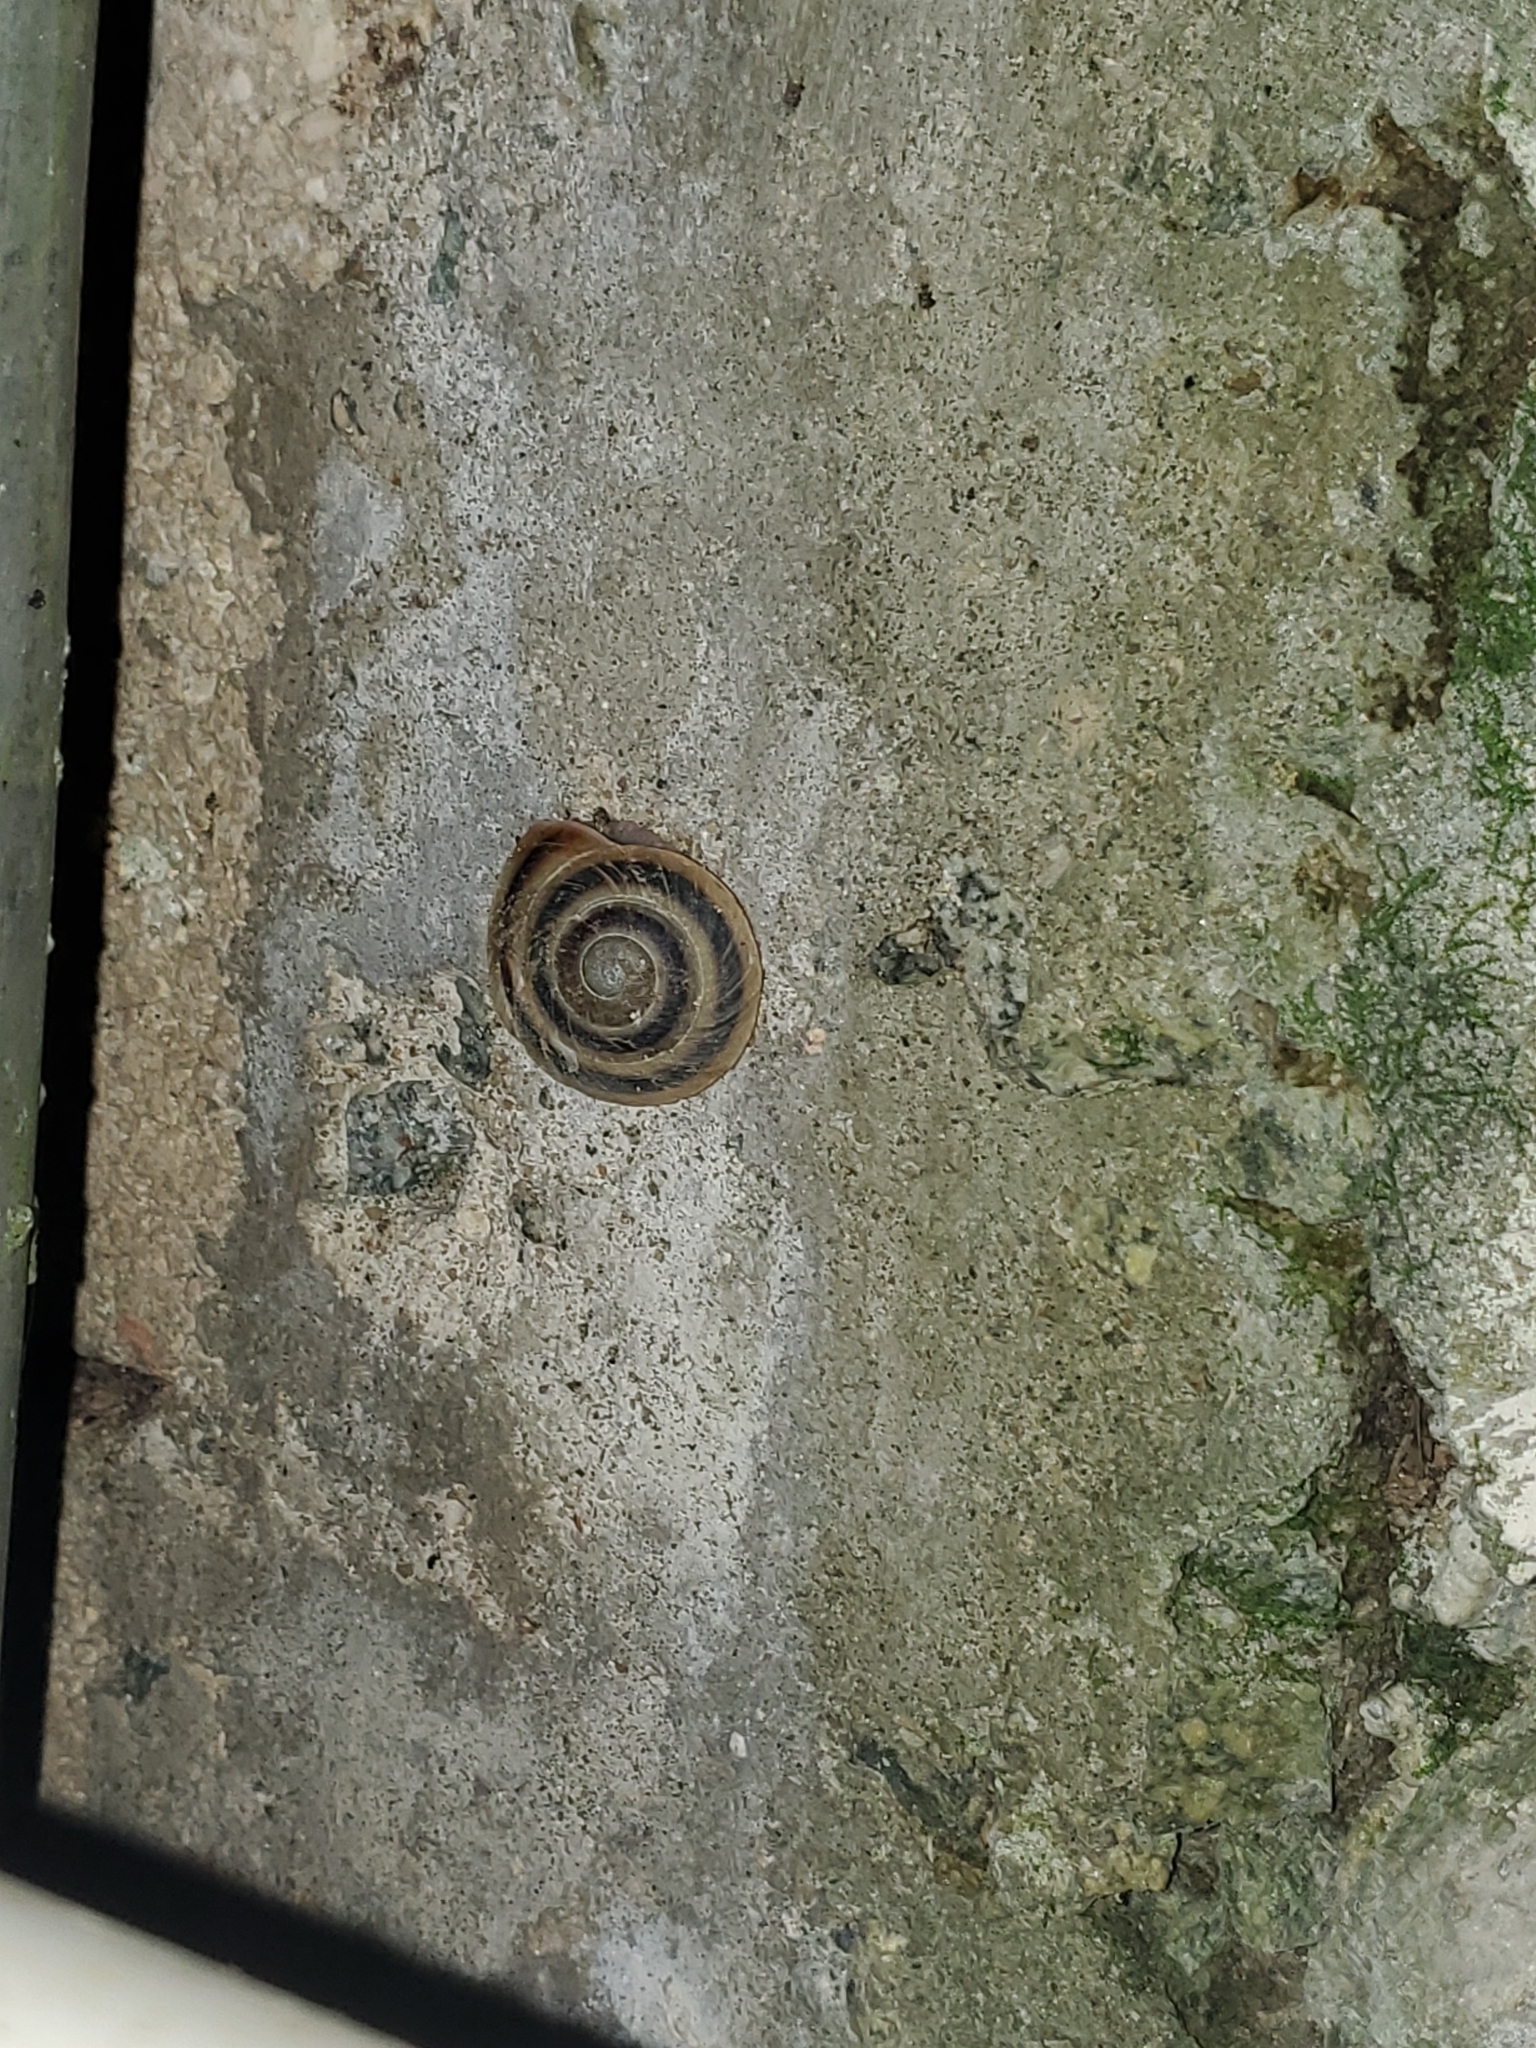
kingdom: Animalia
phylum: Mollusca
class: Gastropoda
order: Stylommatophora
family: Solaropsidae
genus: Caracolus
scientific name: Caracolus marginella
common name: Banded caracol
